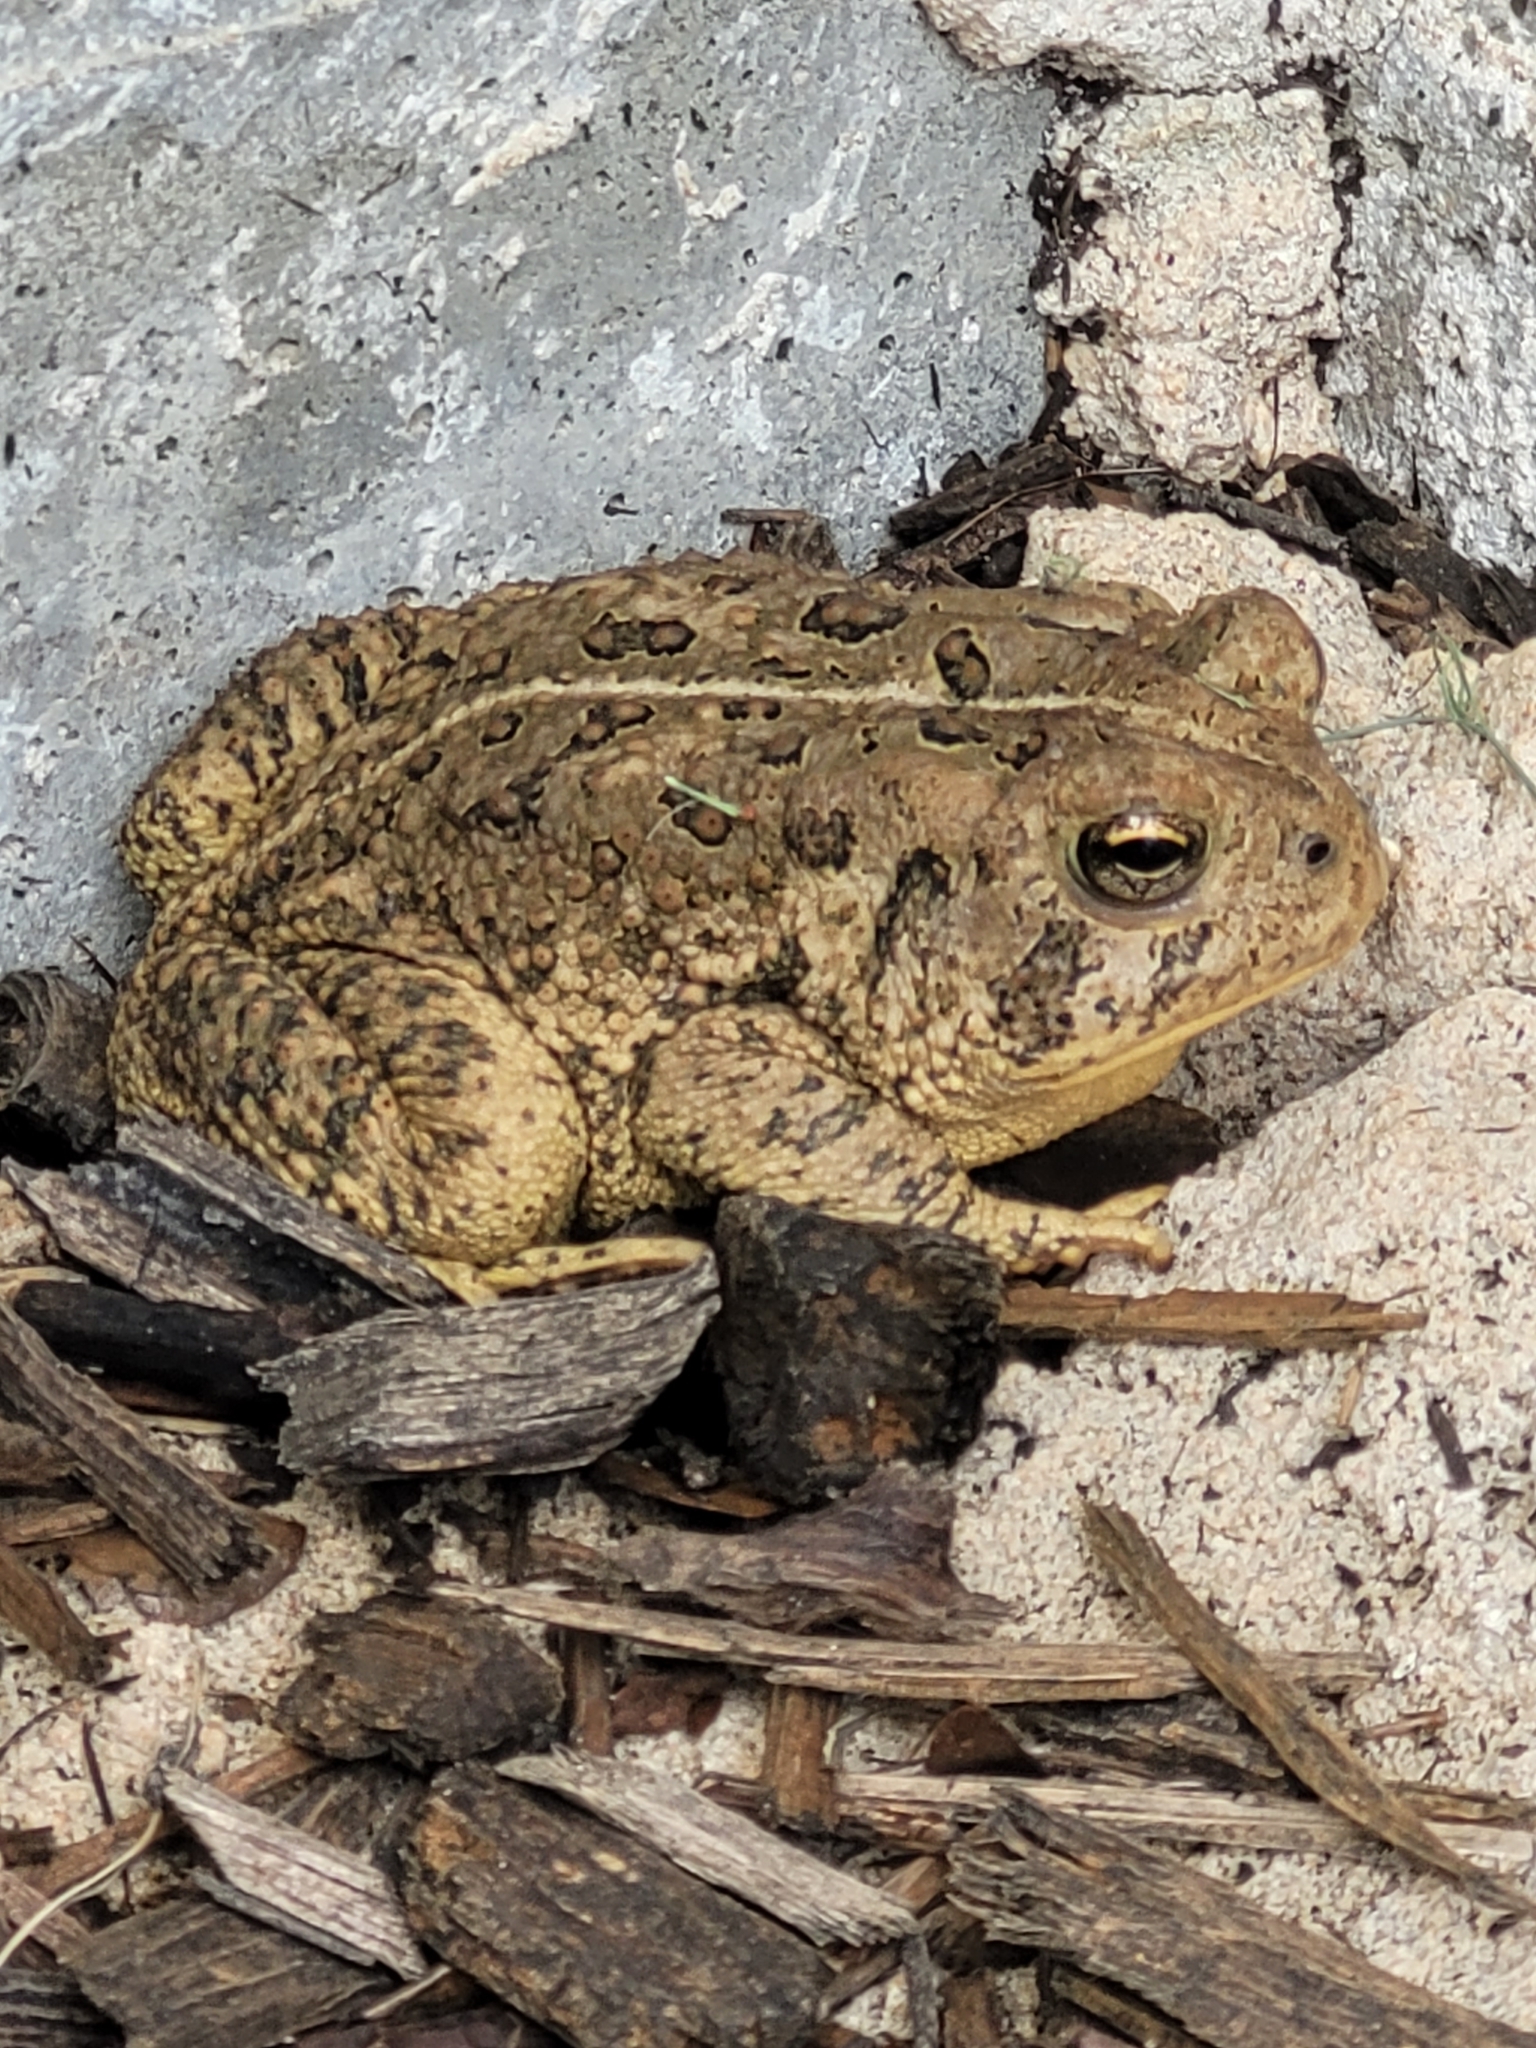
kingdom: Animalia
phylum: Chordata
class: Amphibia
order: Anura
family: Bufonidae
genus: Anaxyrus
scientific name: Anaxyrus woodhousii
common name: Woodhouse's toad
